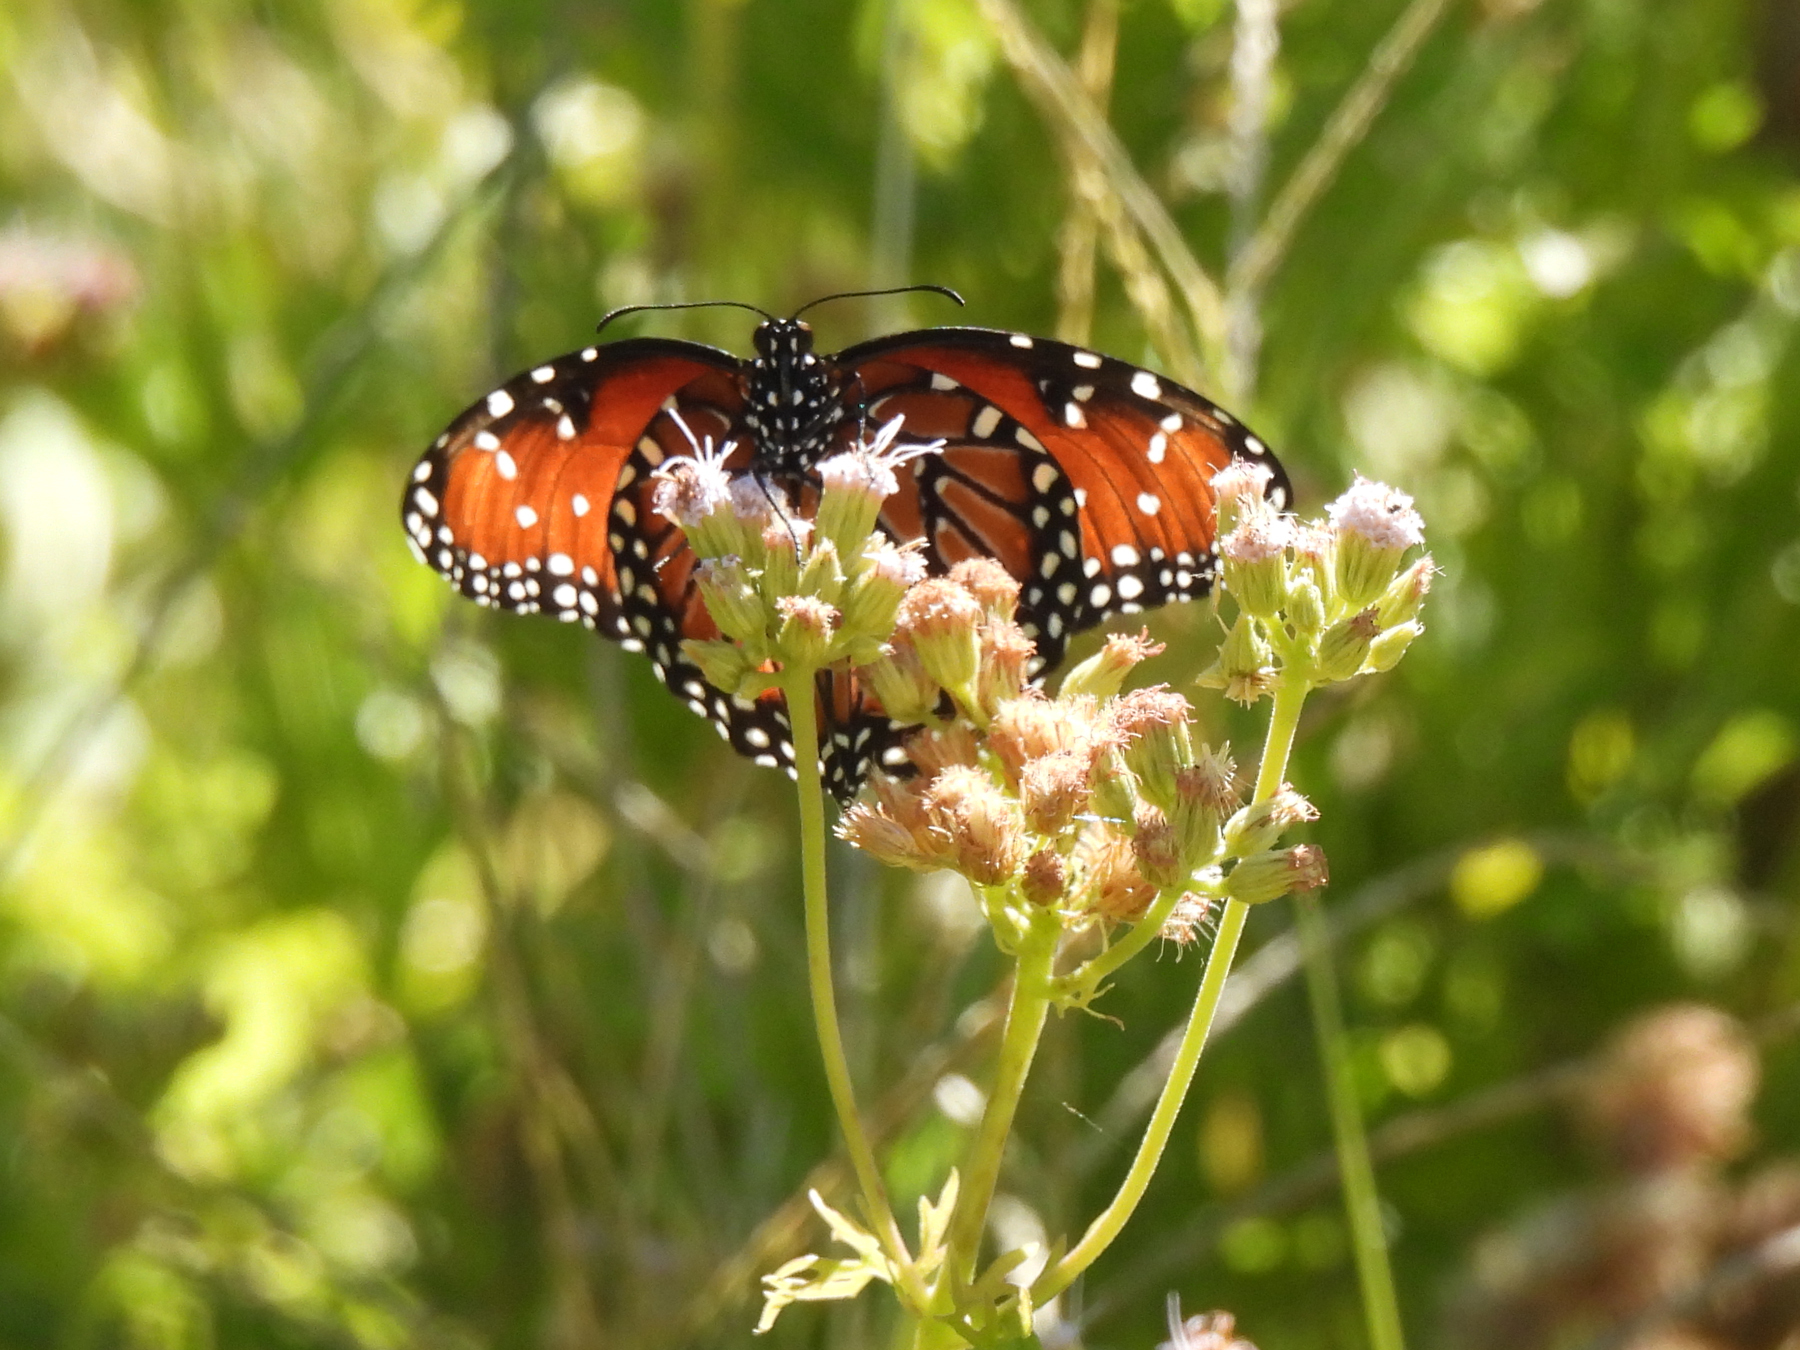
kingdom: Animalia
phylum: Arthropoda
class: Insecta
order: Lepidoptera
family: Nymphalidae
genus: Danaus
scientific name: Danaus gilippus
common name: Queen
